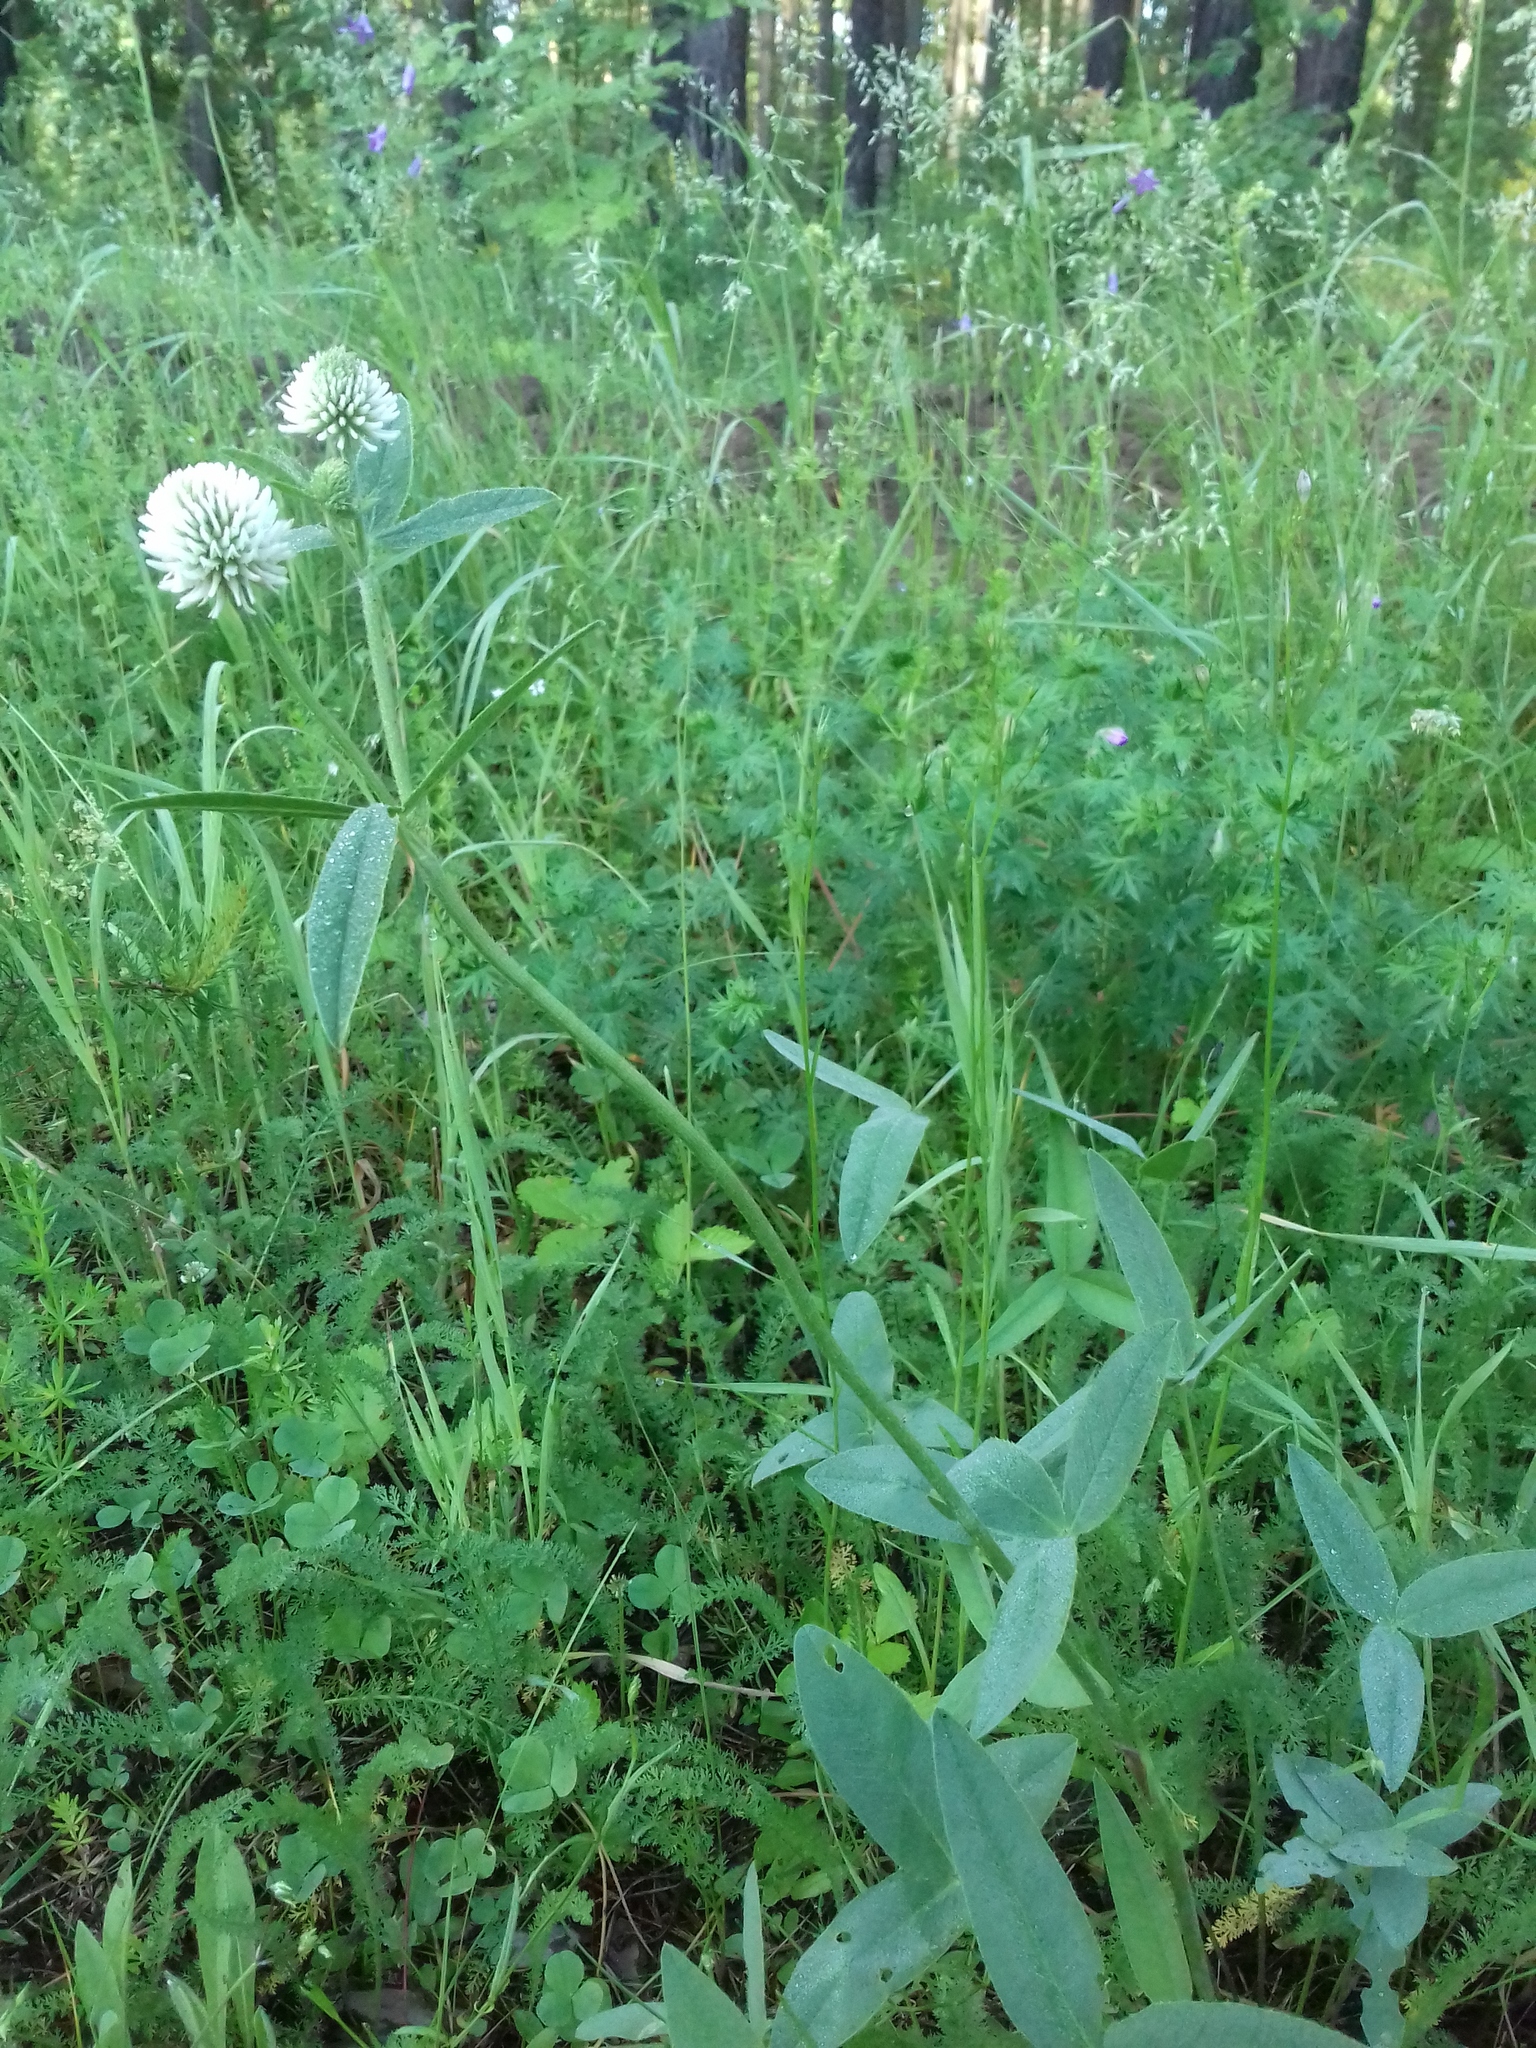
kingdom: Plantae
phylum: Tracheophyta
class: Magnoliopsida
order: Fabales
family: Fabaceae
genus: Trifolium
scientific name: Trifolium montanum
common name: Mountain clover
